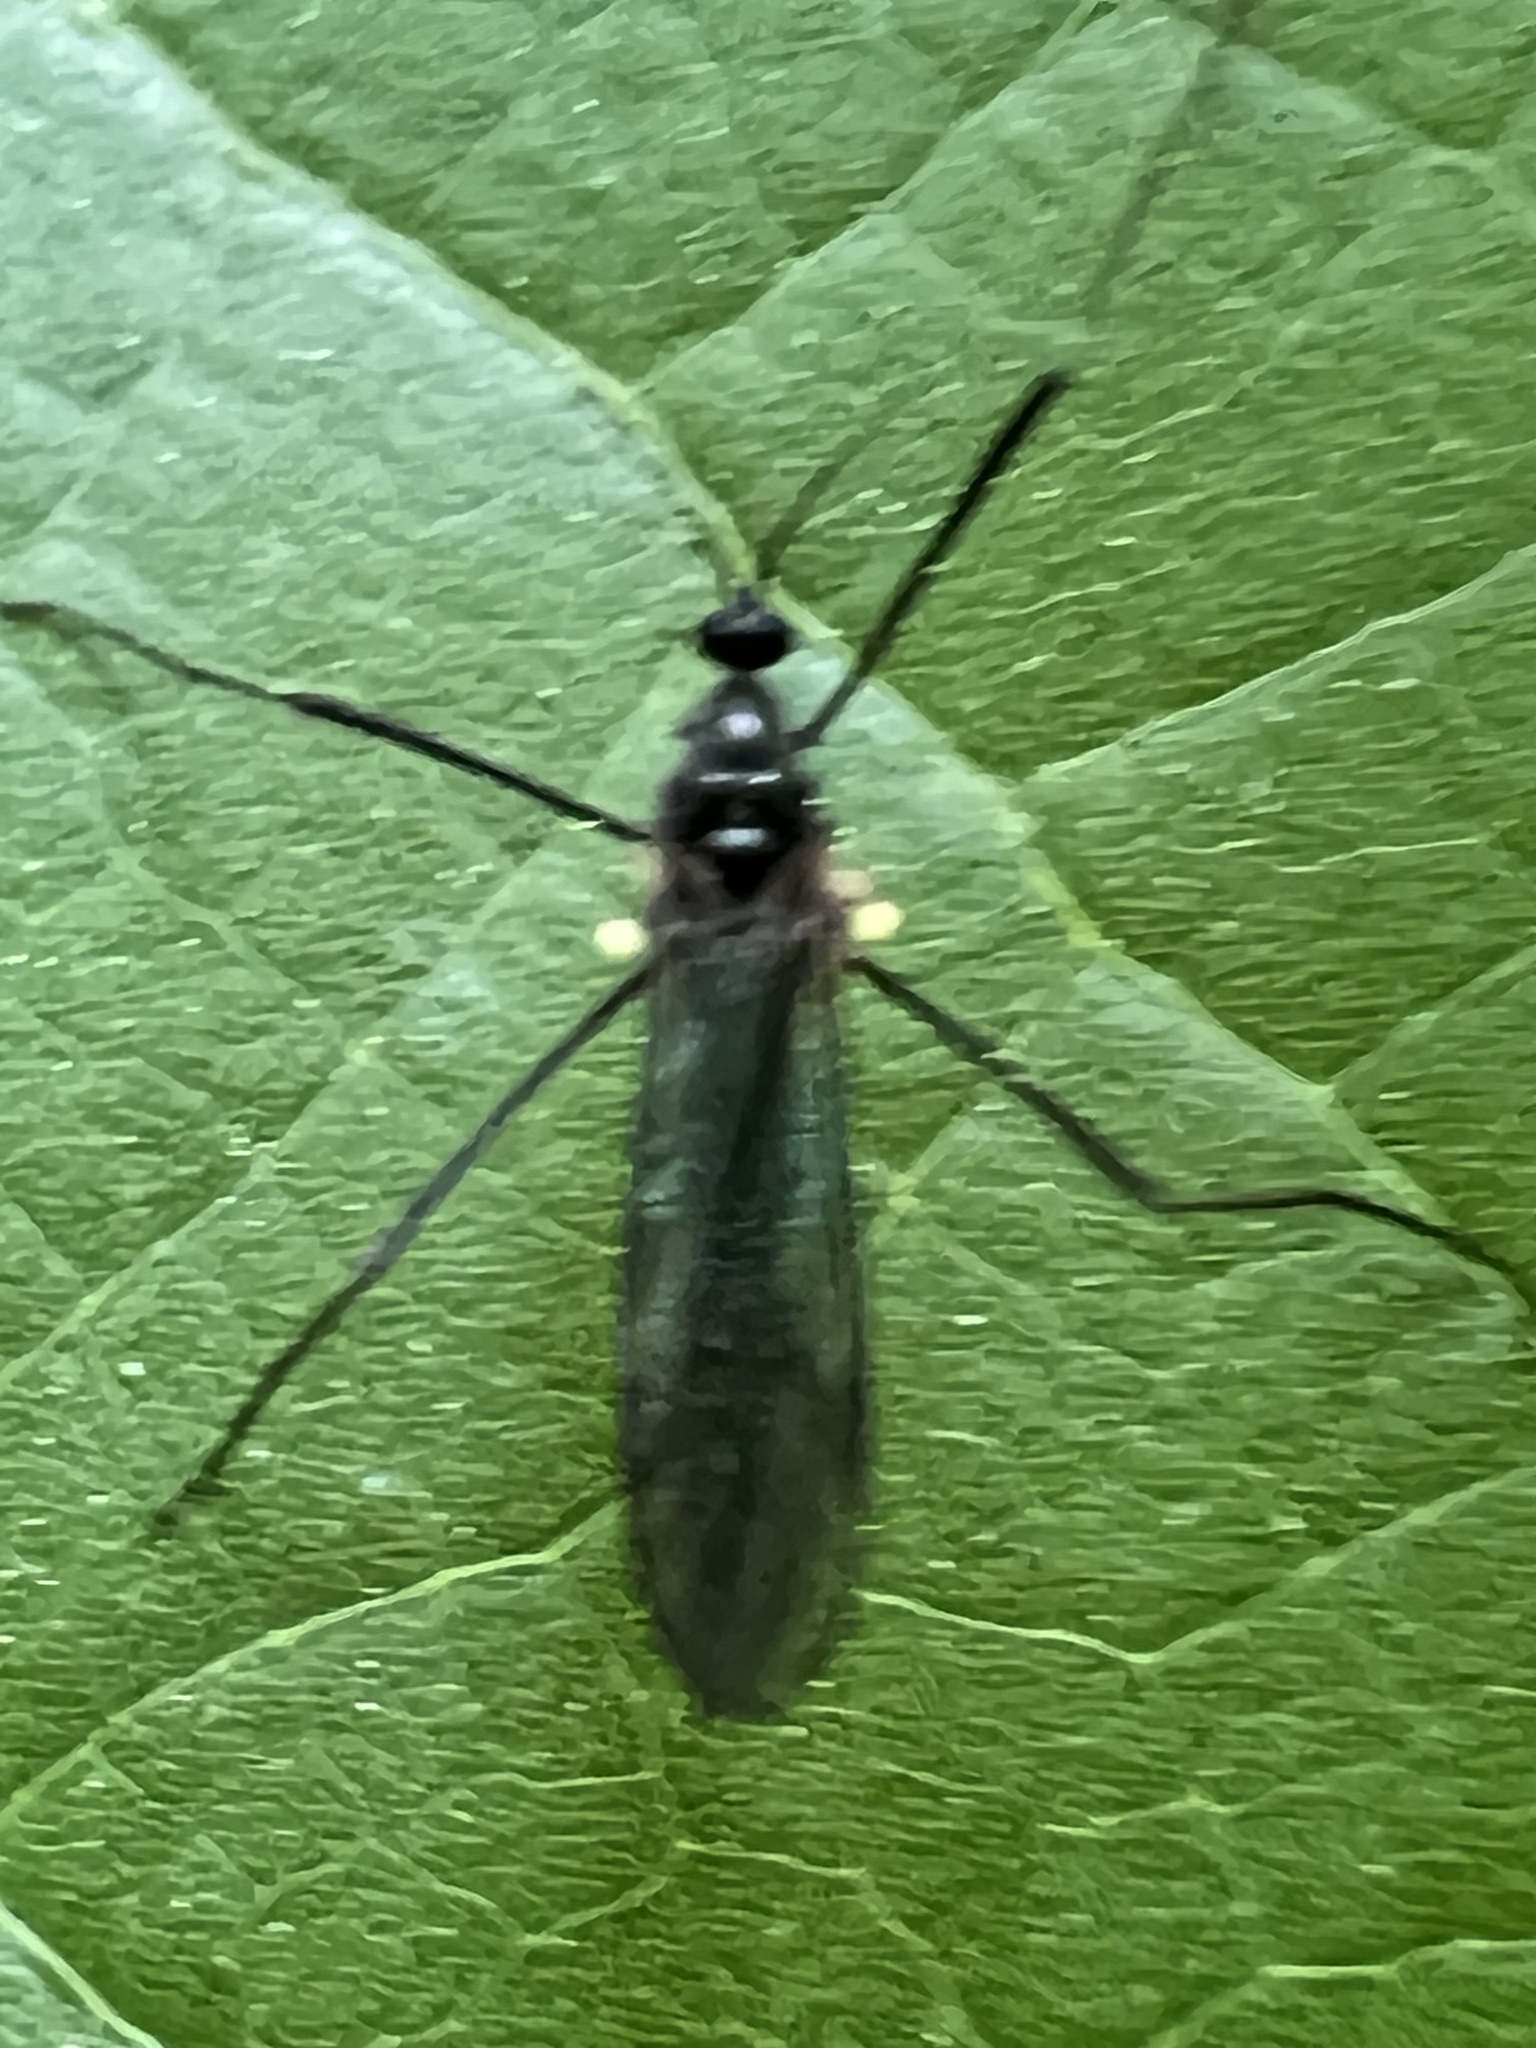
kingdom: Animalia
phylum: Arthropoda
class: Insecta
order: Diptera
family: Limoniidae
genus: Gnophomyia
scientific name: Gnophomyia tristissima
